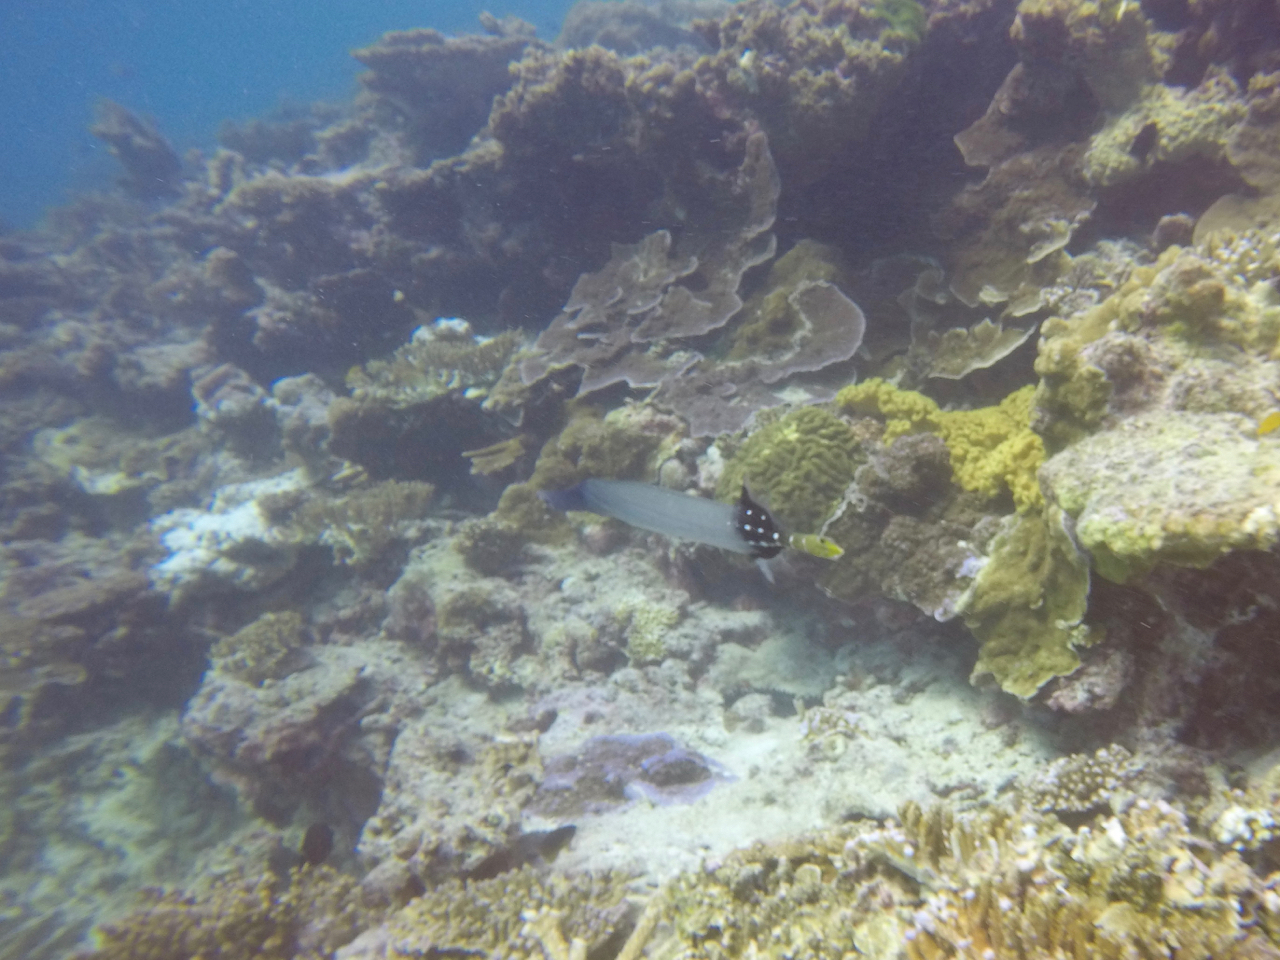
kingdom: Animalia
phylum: Chordata
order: Syngnathiformes
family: Aulostomidae
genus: Aulostomus
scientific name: Aulostomus chinensis
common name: Chinese trumpetfish
